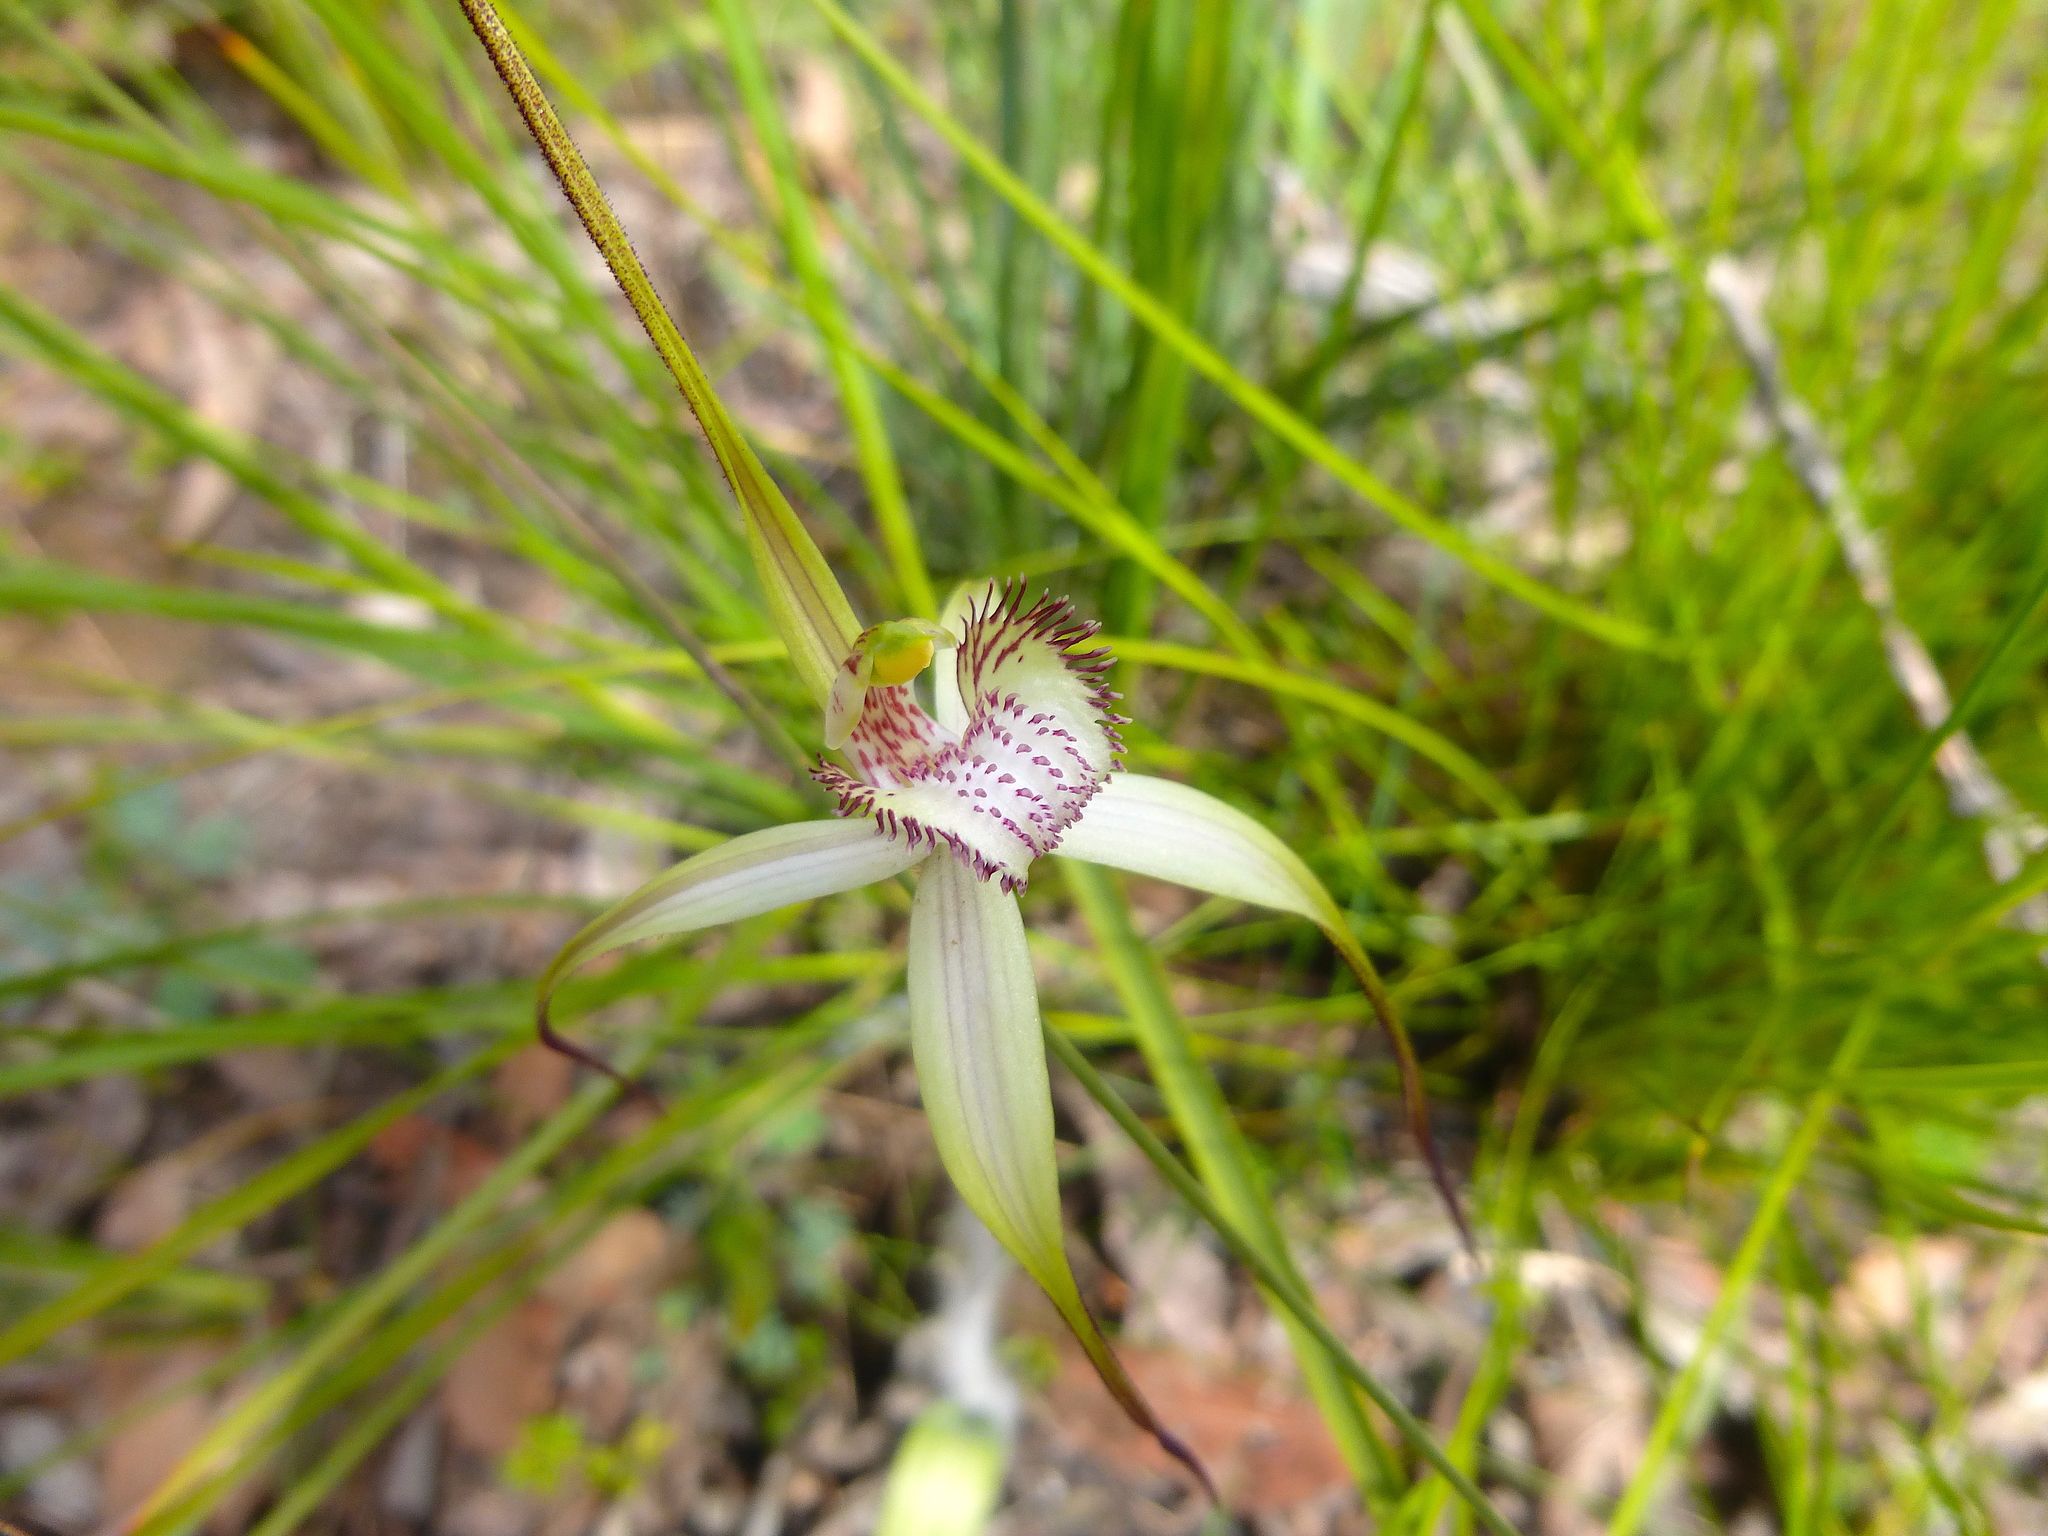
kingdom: Plantae
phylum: Tracheophyta
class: Liliopsida
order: Asparagales
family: Orchidaceae
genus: Caladenia
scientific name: Caladenia venusta
